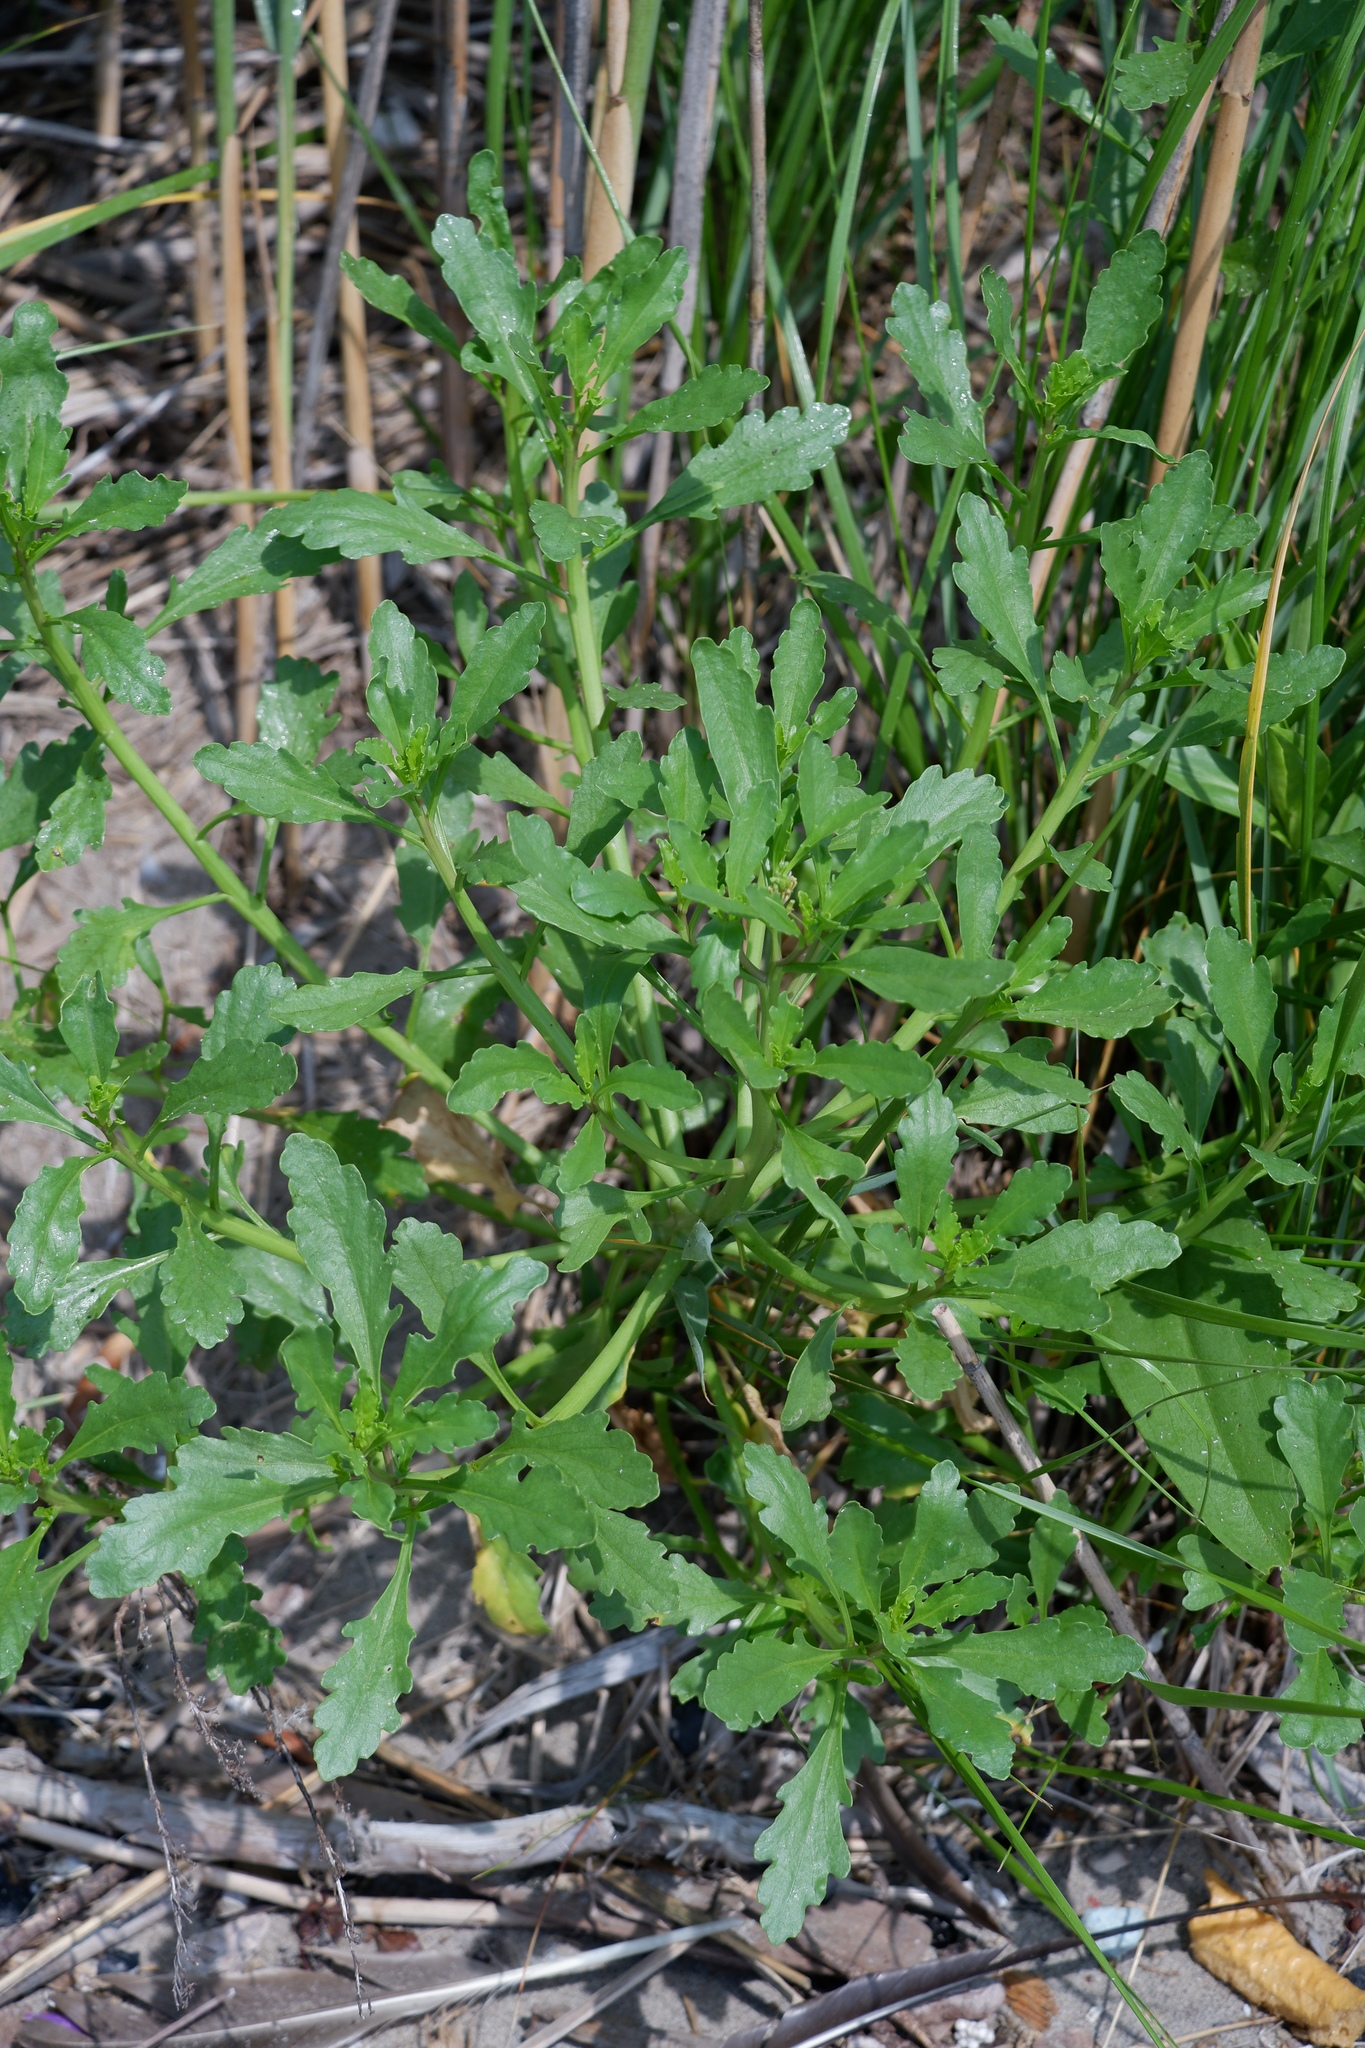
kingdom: Plantae
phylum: Tracheophyta
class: Magnoliopsida
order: Brassicales
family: Brassicaceae
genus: Cakile
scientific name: Cakile edentula
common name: American sea rocket
